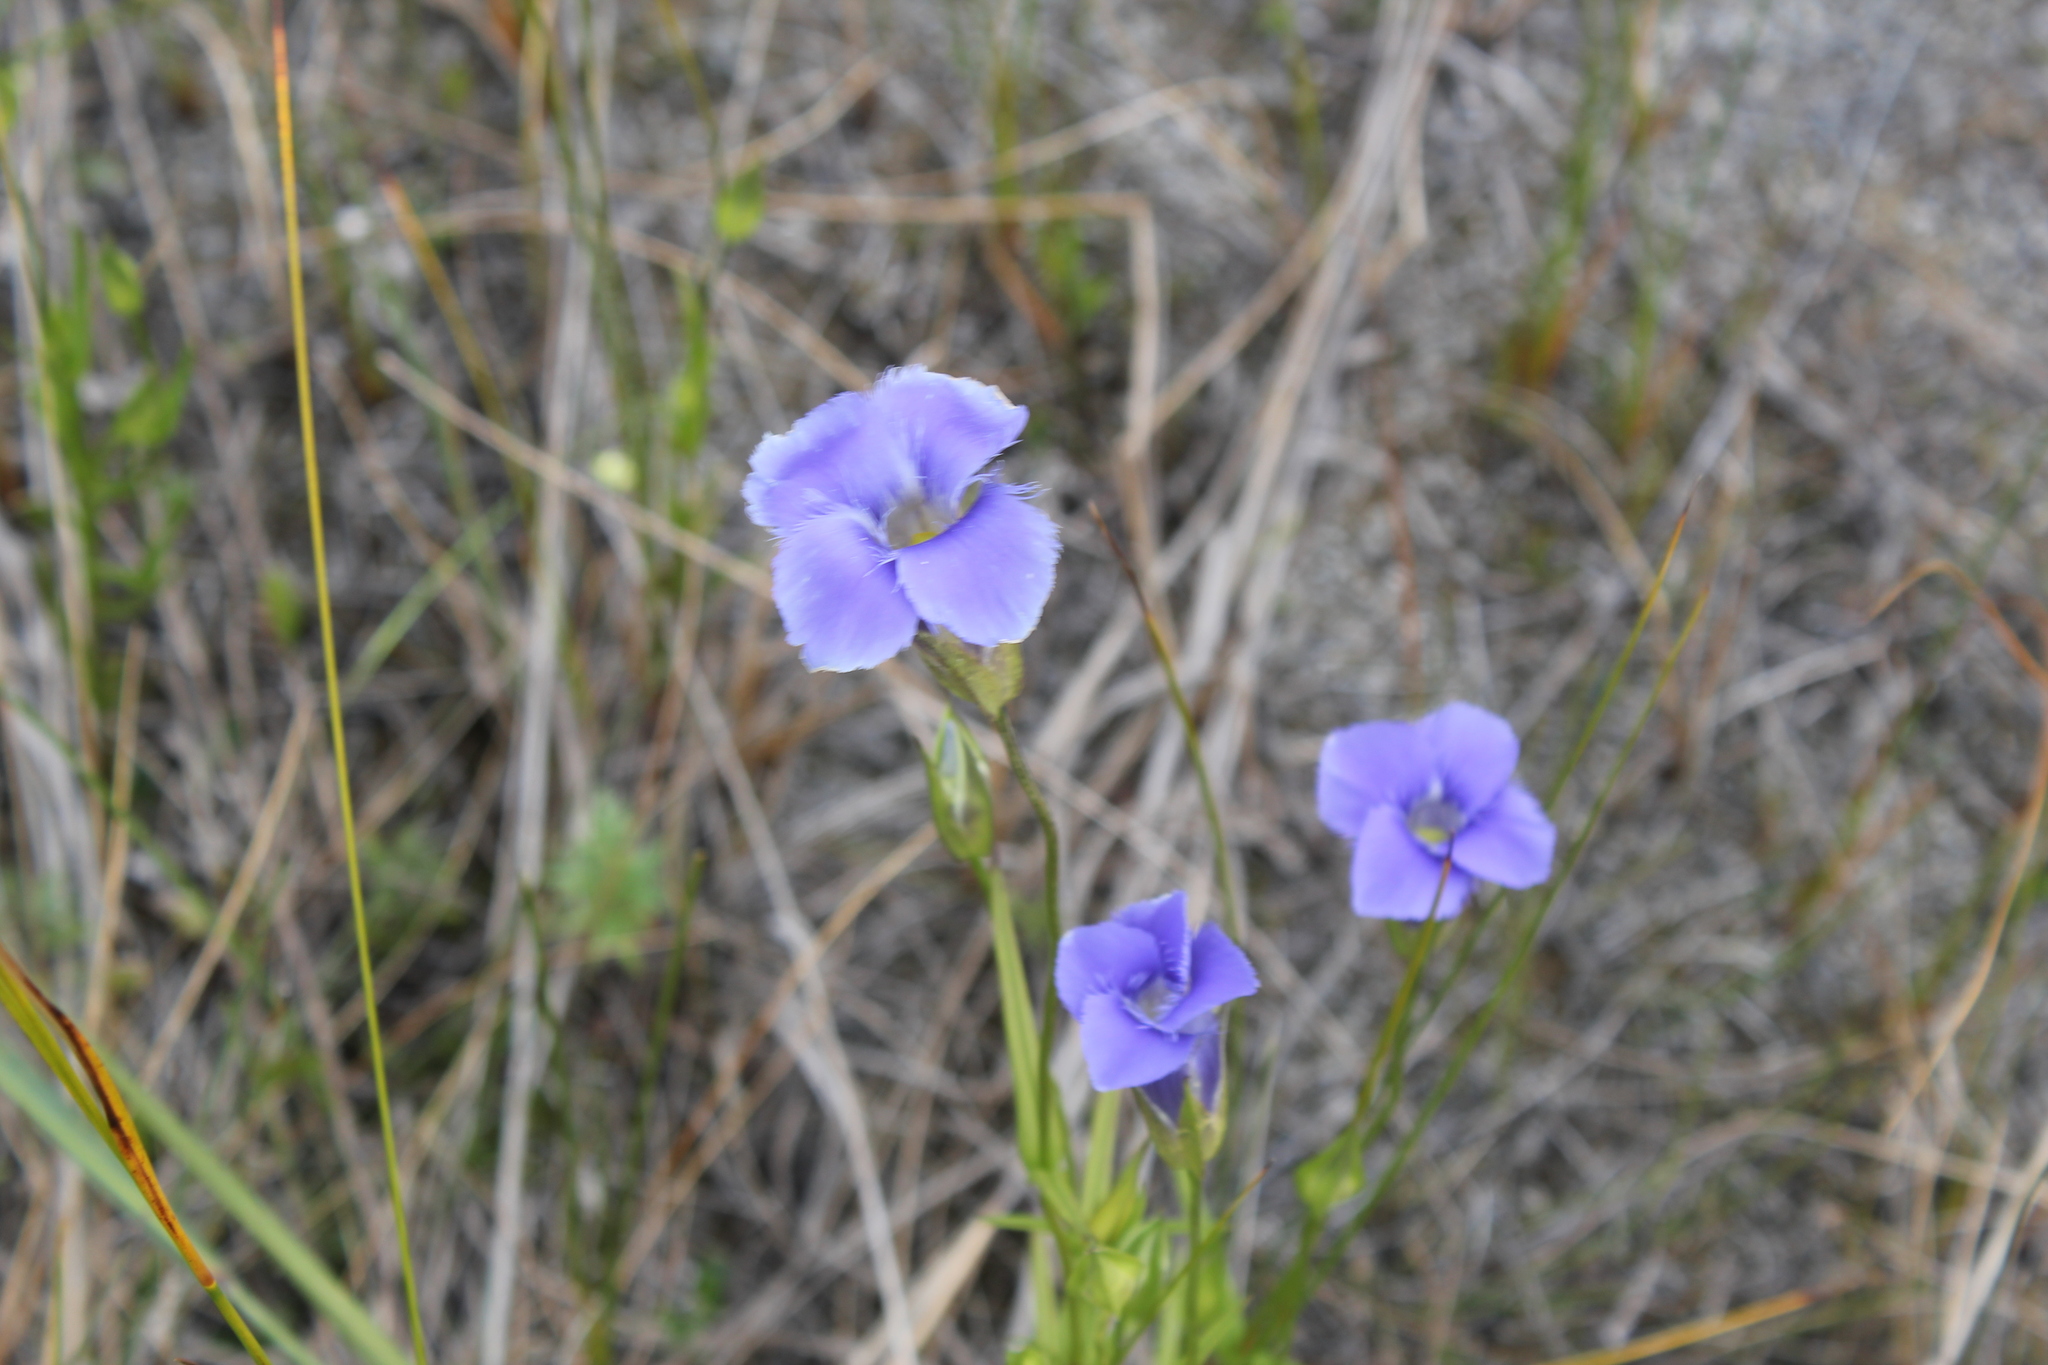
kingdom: Plantae
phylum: Tracheophyta
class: Magnoliopsida
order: Gentianales
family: Gentianaceae
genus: Gentianopsis
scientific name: Gentianopsis virgata
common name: Lesser fringed-gentian
